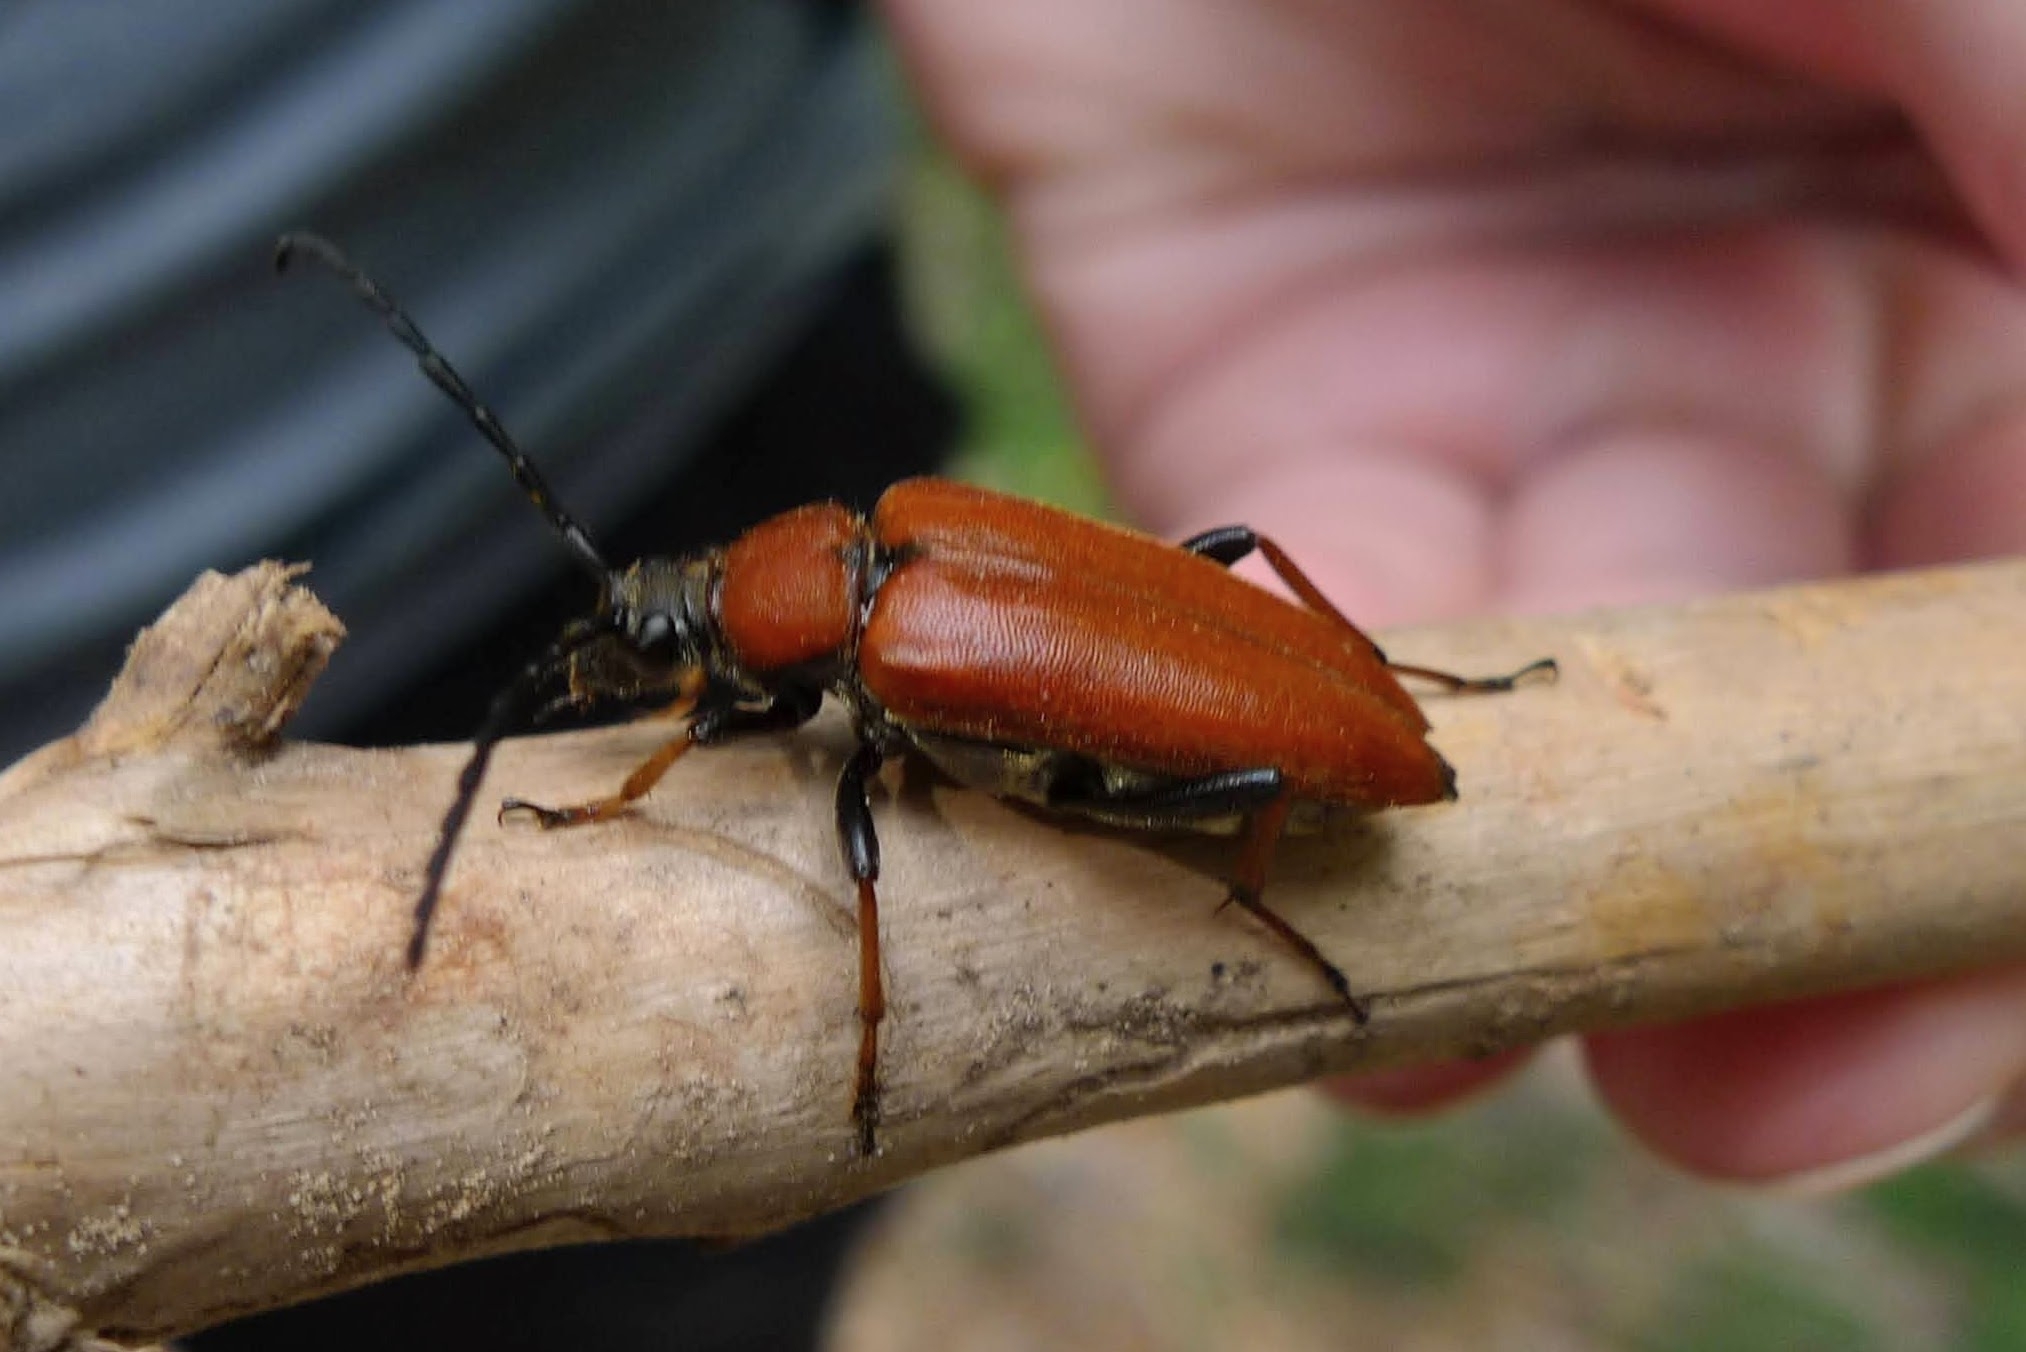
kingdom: Animalia
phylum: Arthropoda
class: Insecta
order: Coleoptera
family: Cerambycidae
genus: Stictoleptura
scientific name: Stictoleptura rubra
